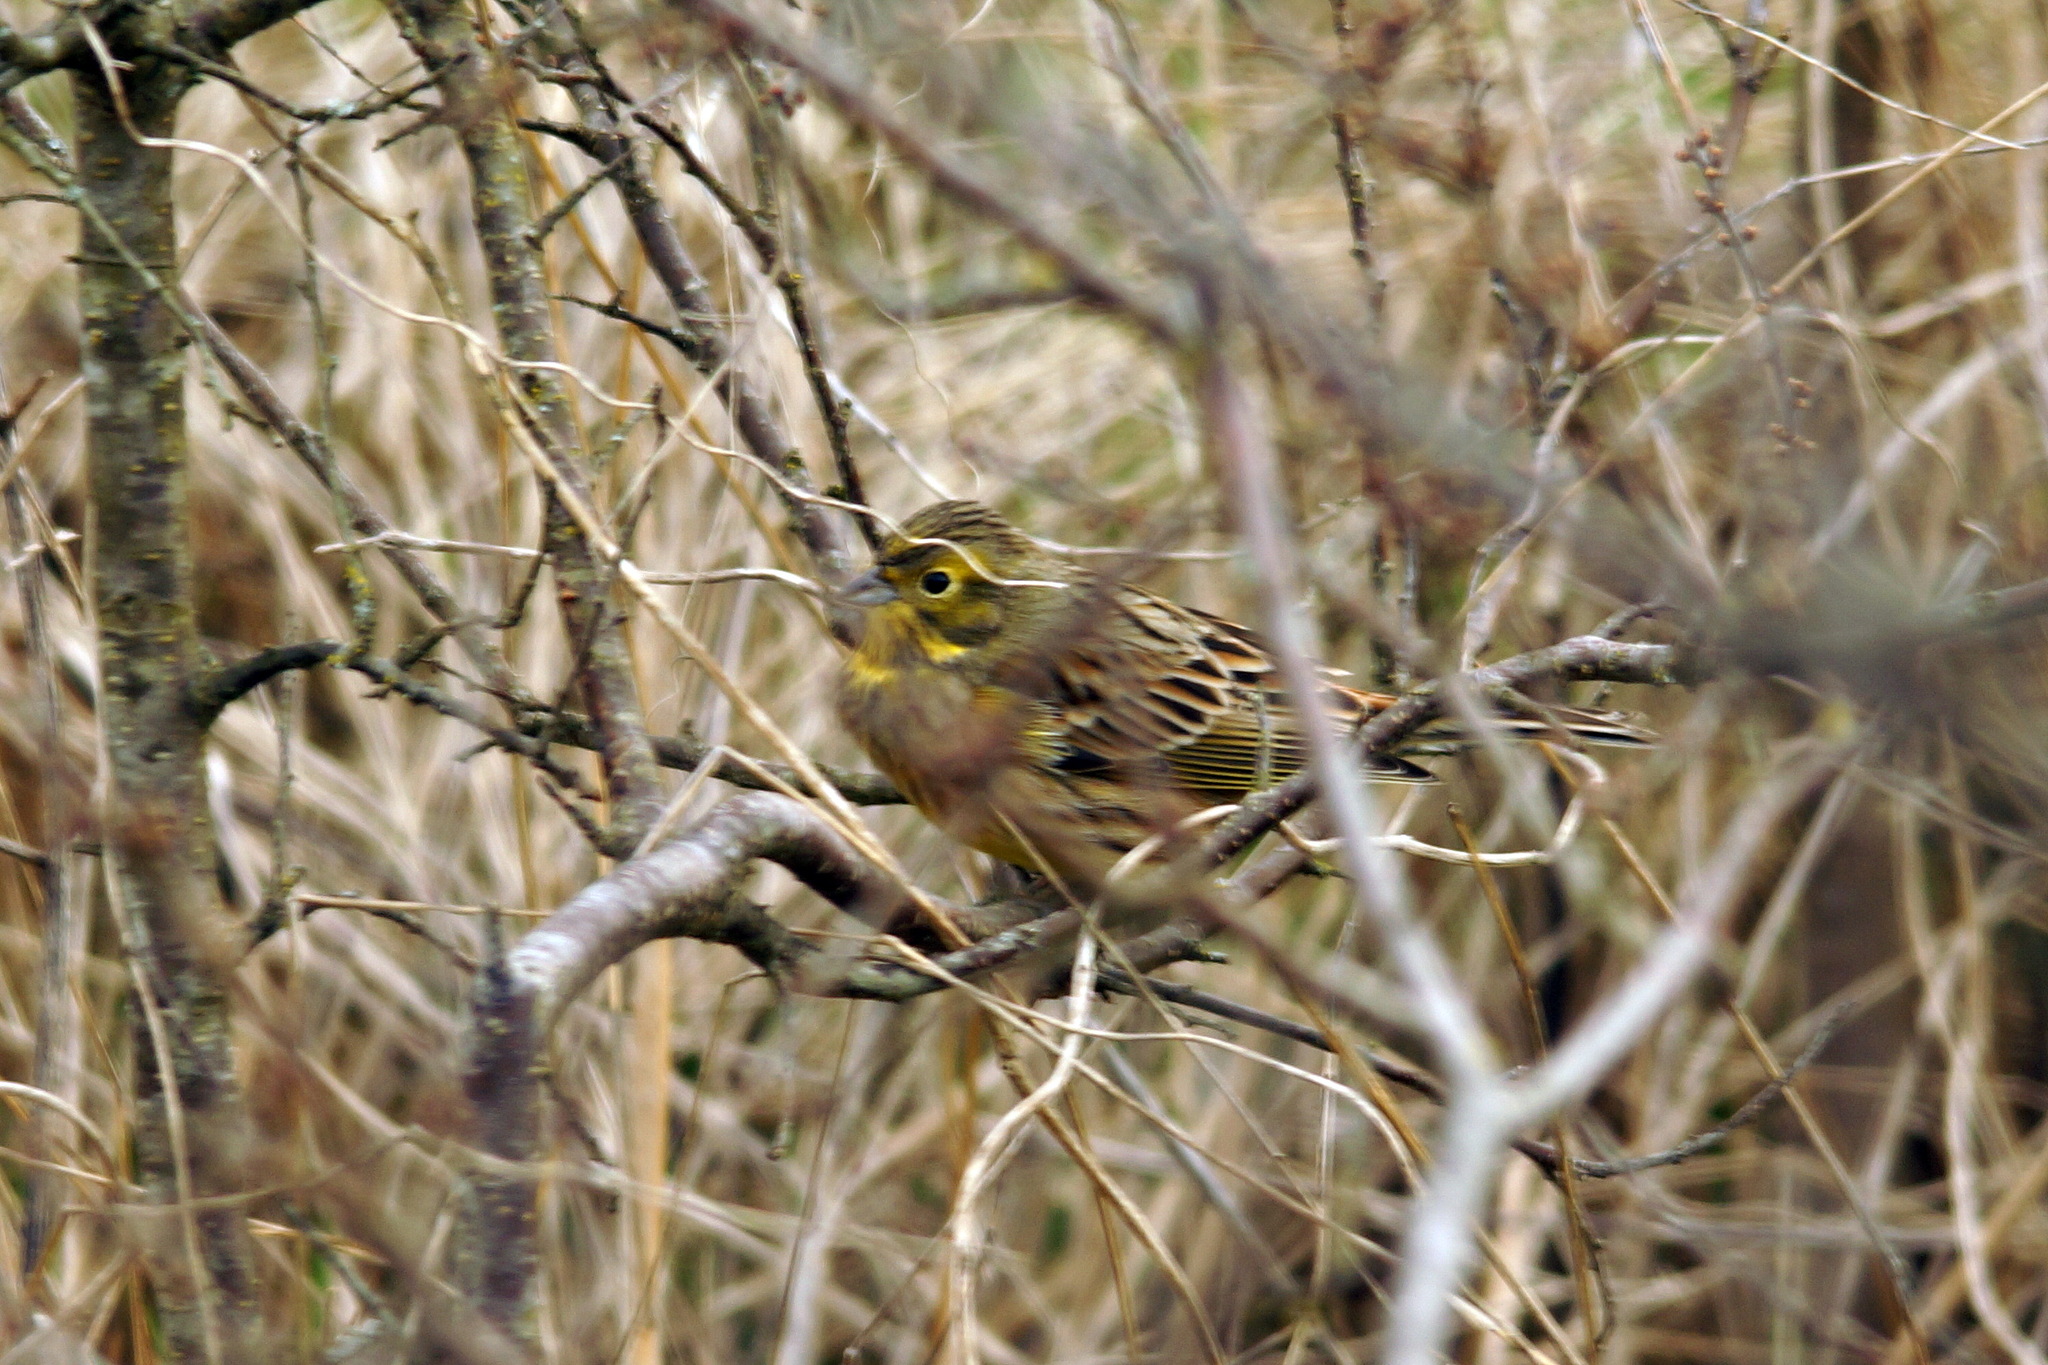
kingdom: Animalia
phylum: Chordata
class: Aves
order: Passeriformes
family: Emberizidae
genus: Emberiza
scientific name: Emberiza citrinella
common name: Yellowhammer
